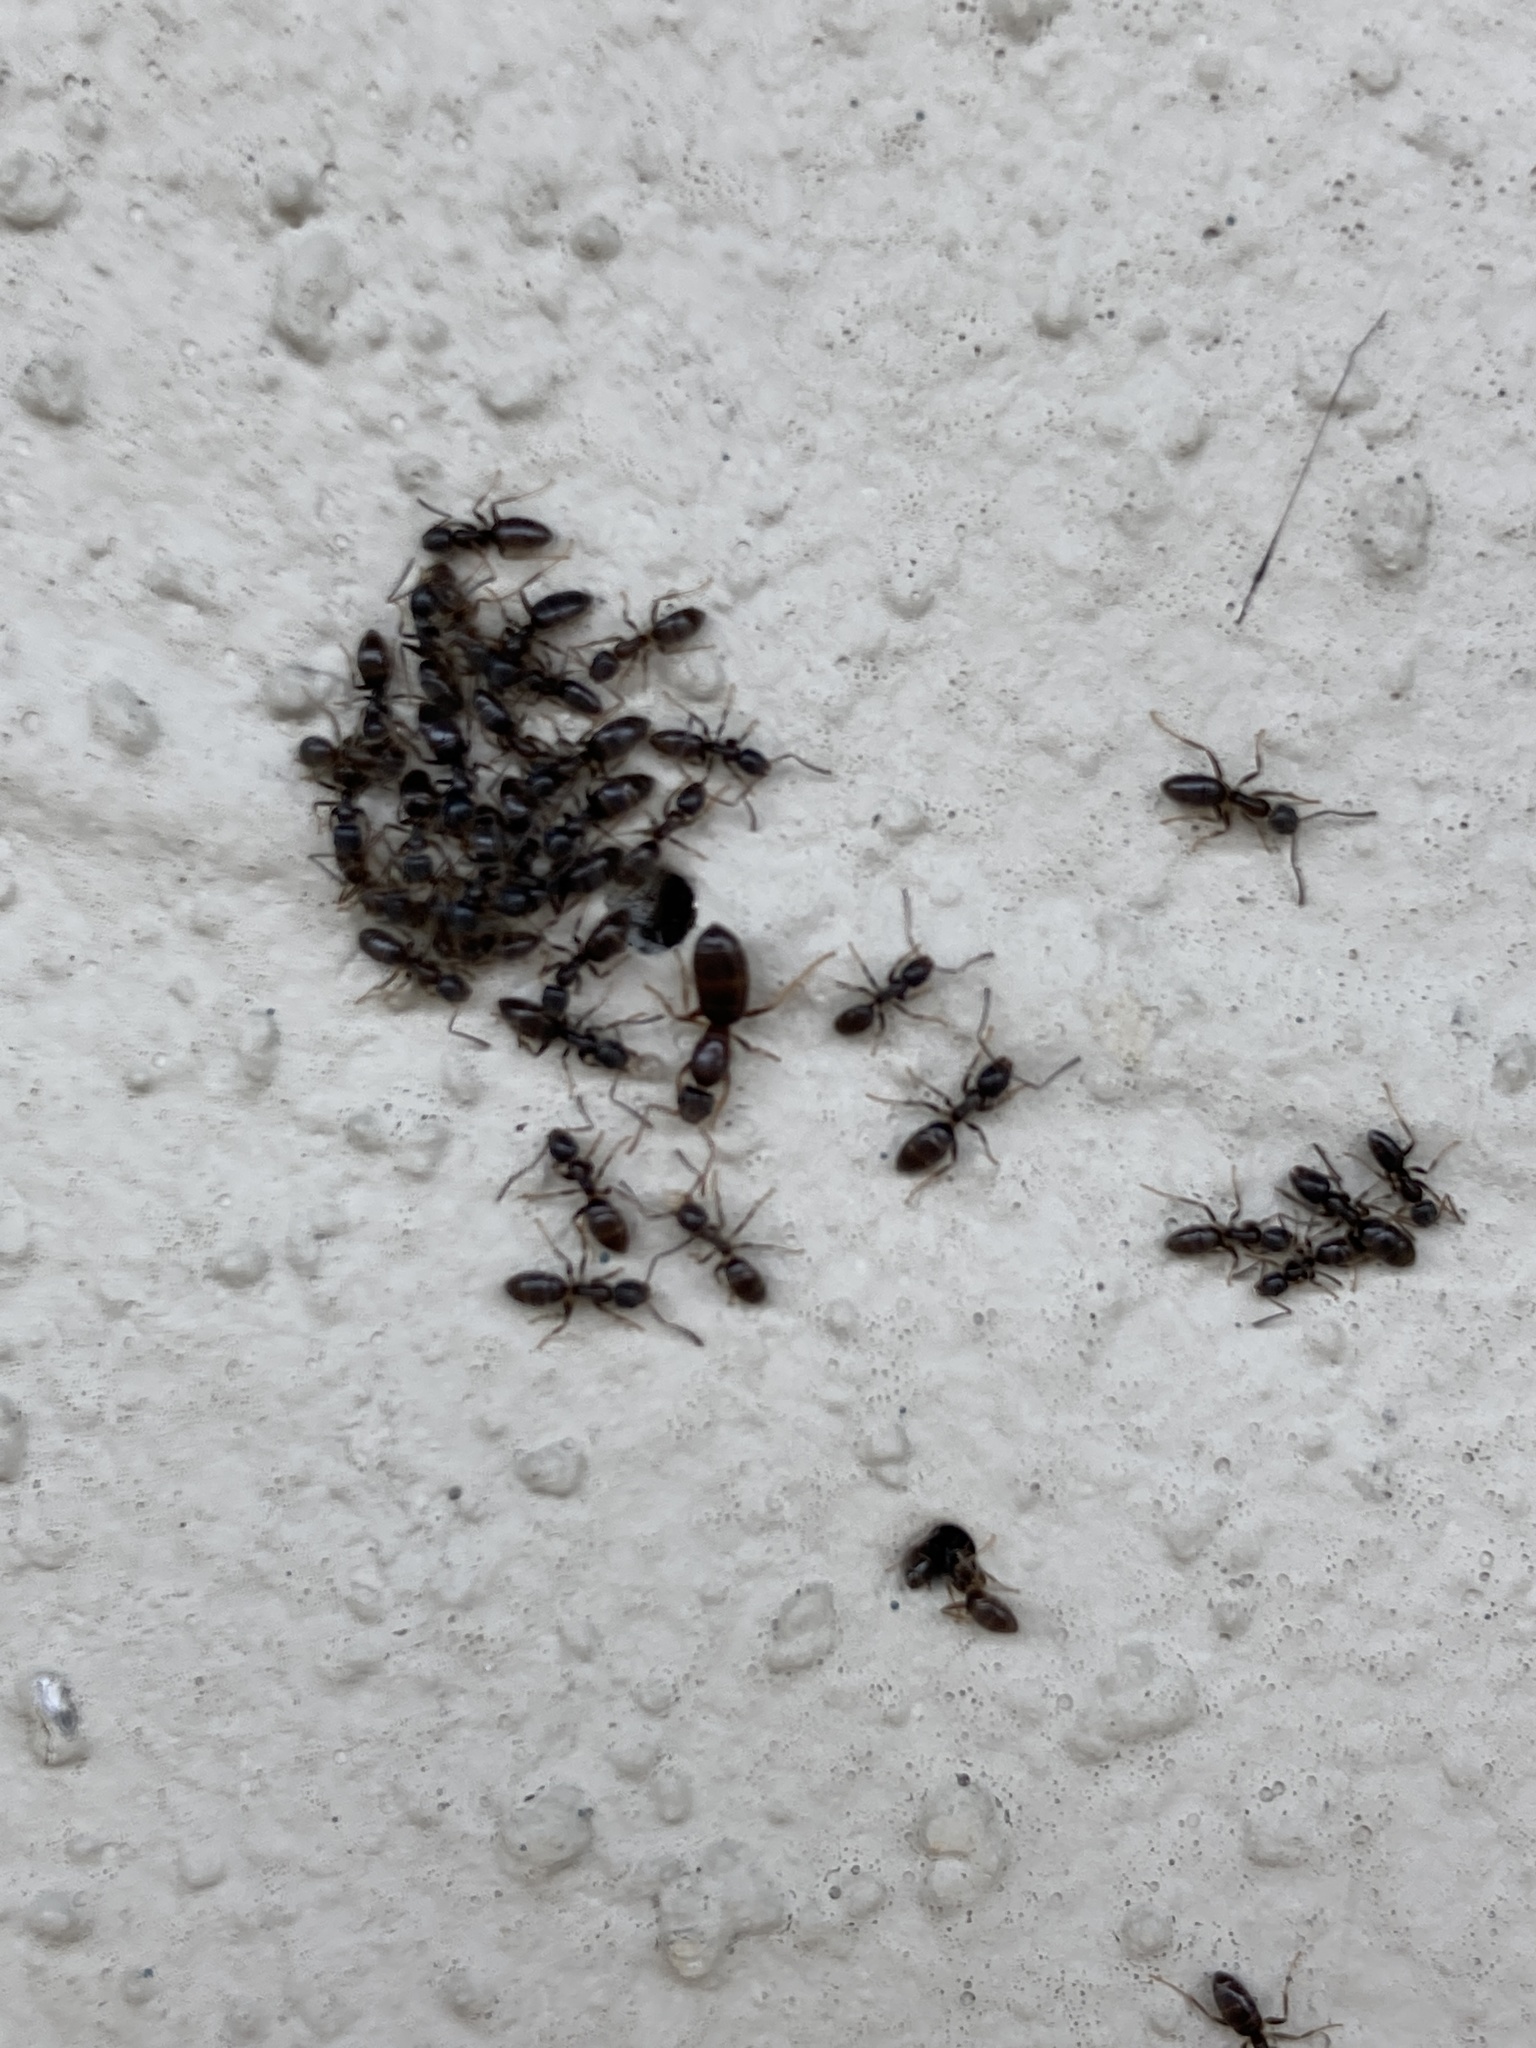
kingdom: Animalia
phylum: Arthropoda
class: Insecta
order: Hymenoptera
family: Formicidae
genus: Tapinoma
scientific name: Tapinoma sessile
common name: Odorous house ant
